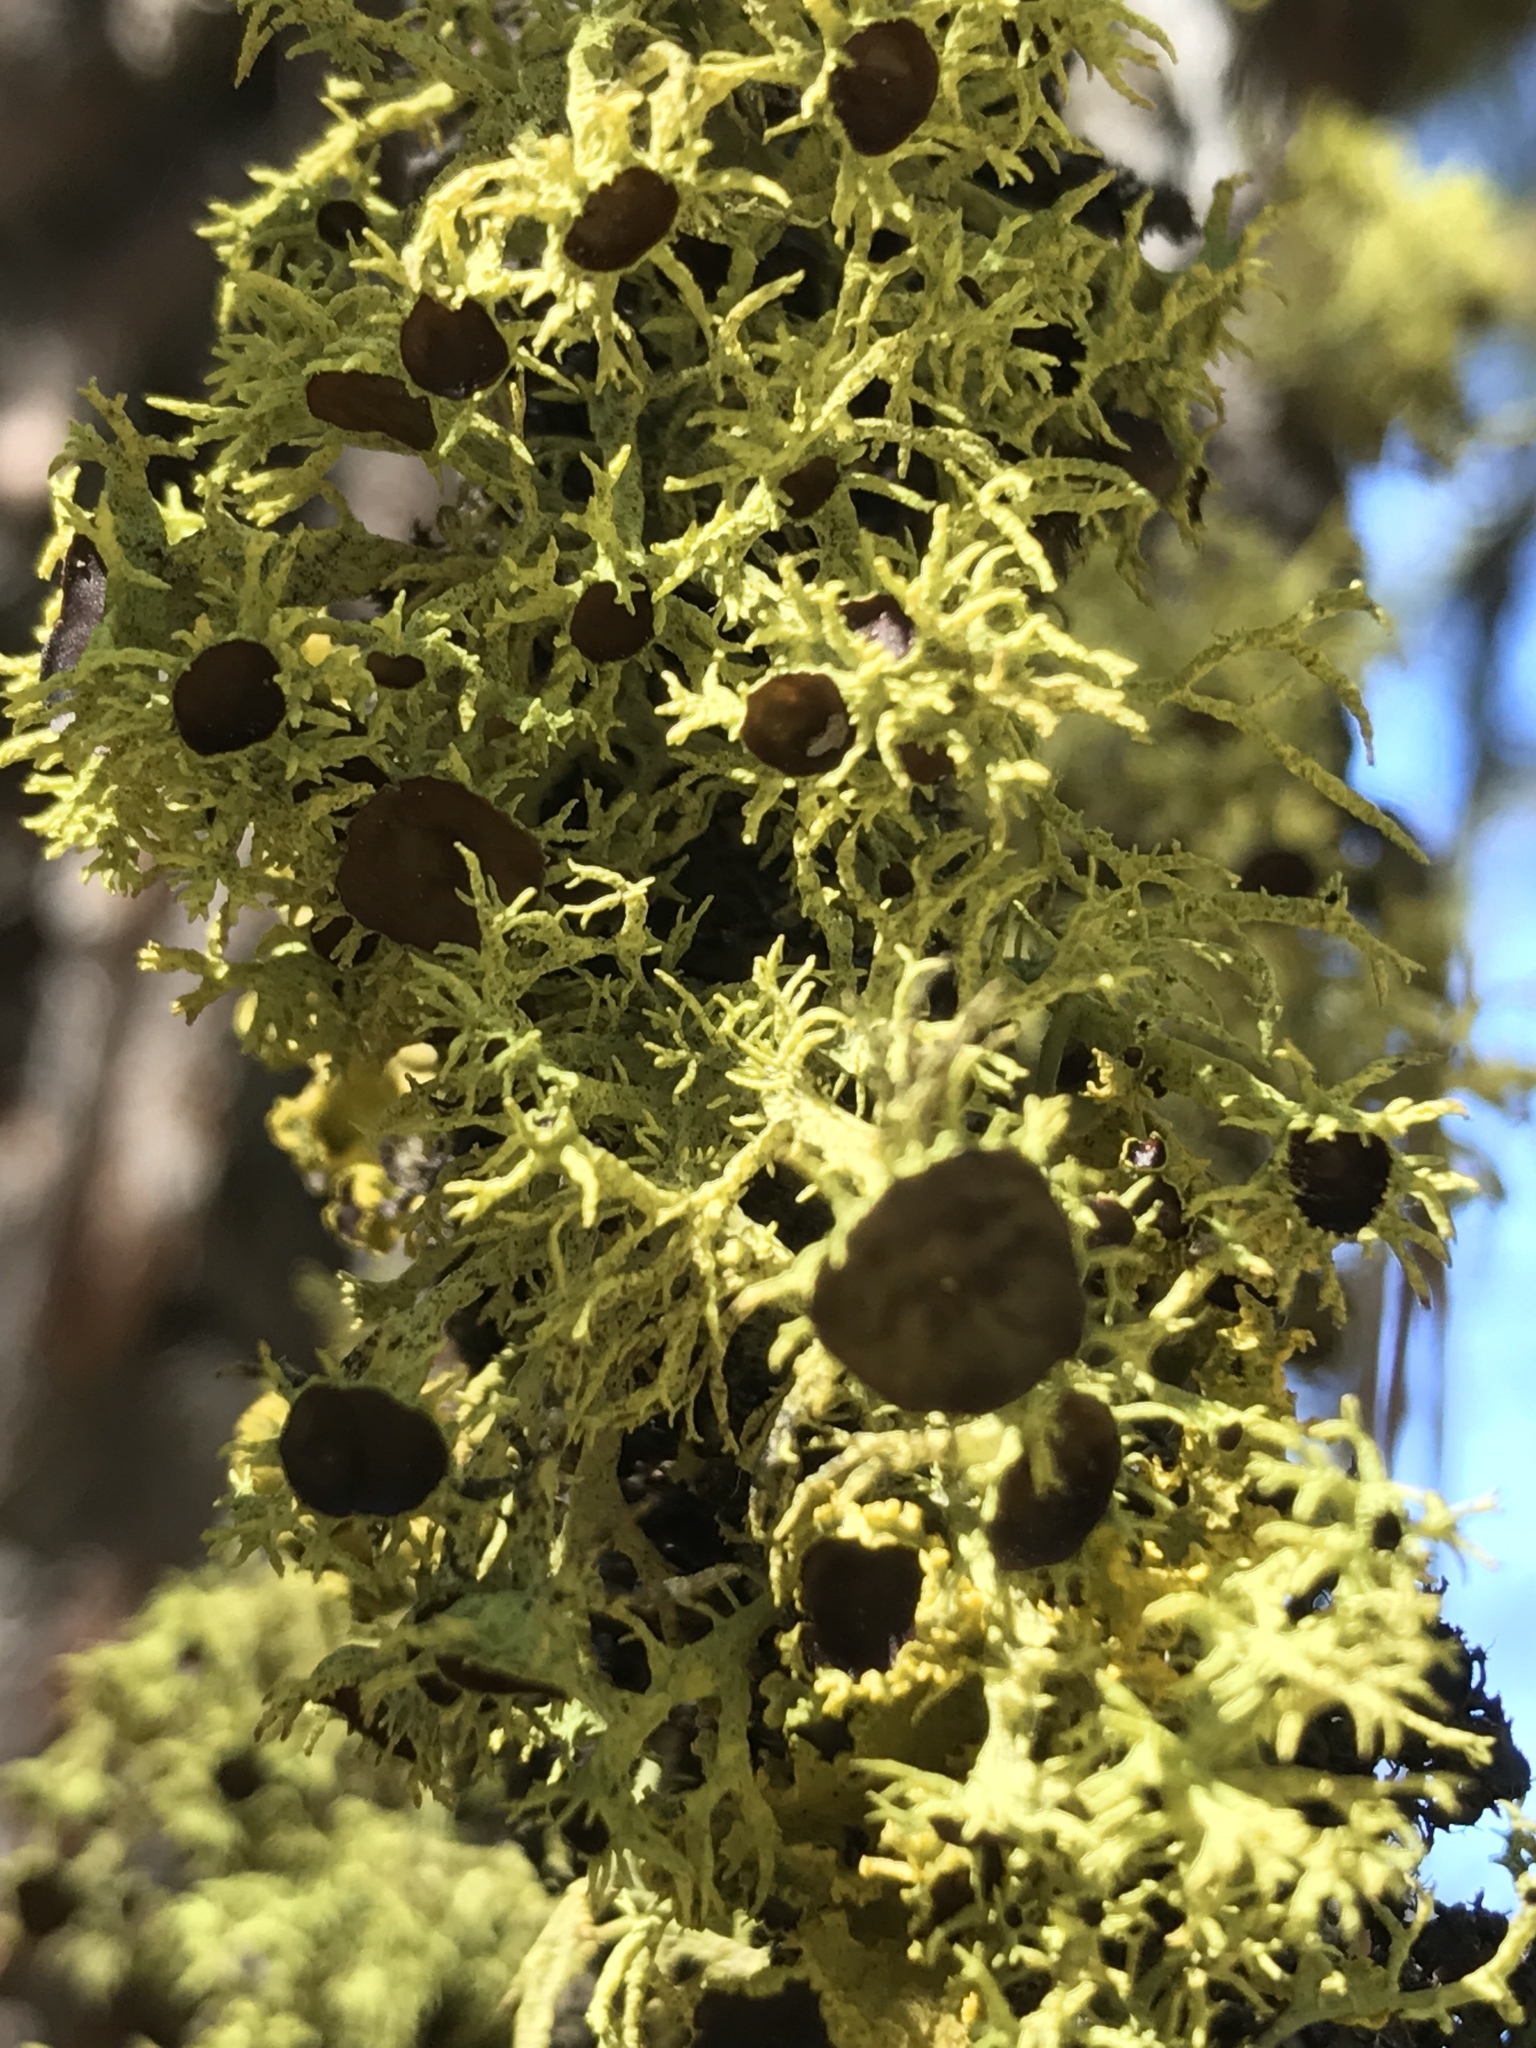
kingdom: Fungi
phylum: Ascomycota
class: Lecanoromycetes
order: Lecanorales
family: Parmeliaceae
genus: Letharia
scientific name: Letharia columbiana
